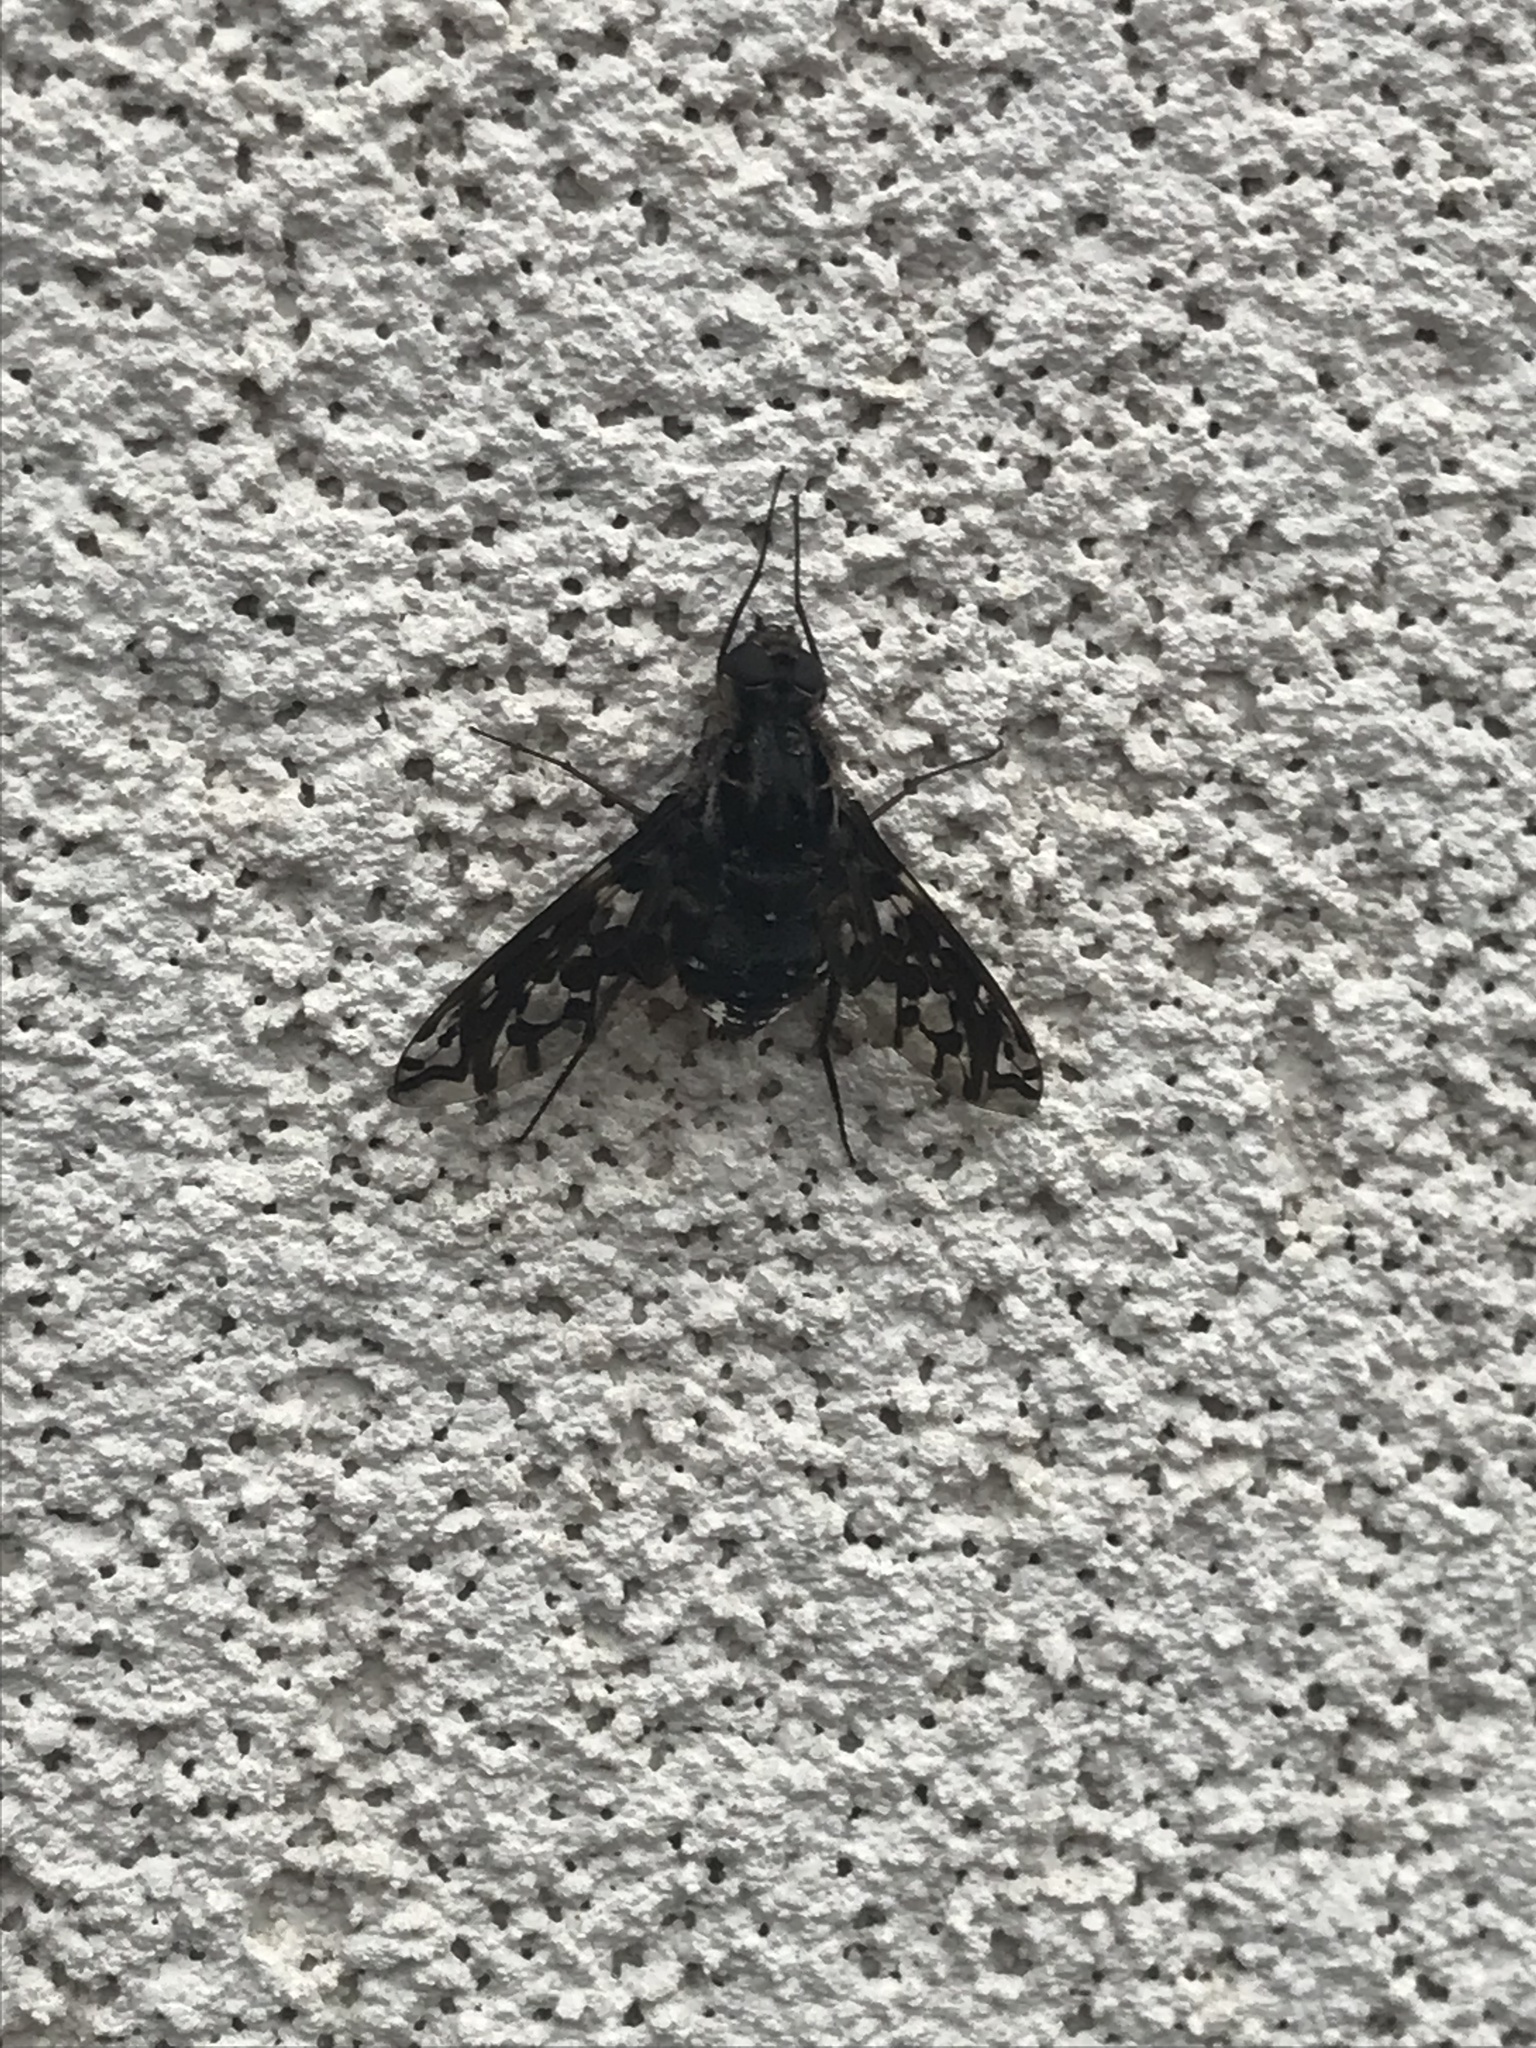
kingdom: Animalia
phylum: Arthropoda
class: Insecta
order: Diptera
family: Bombyliidae
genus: Xenox
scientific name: Xenox tigrinus
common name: Tiger bee fly
